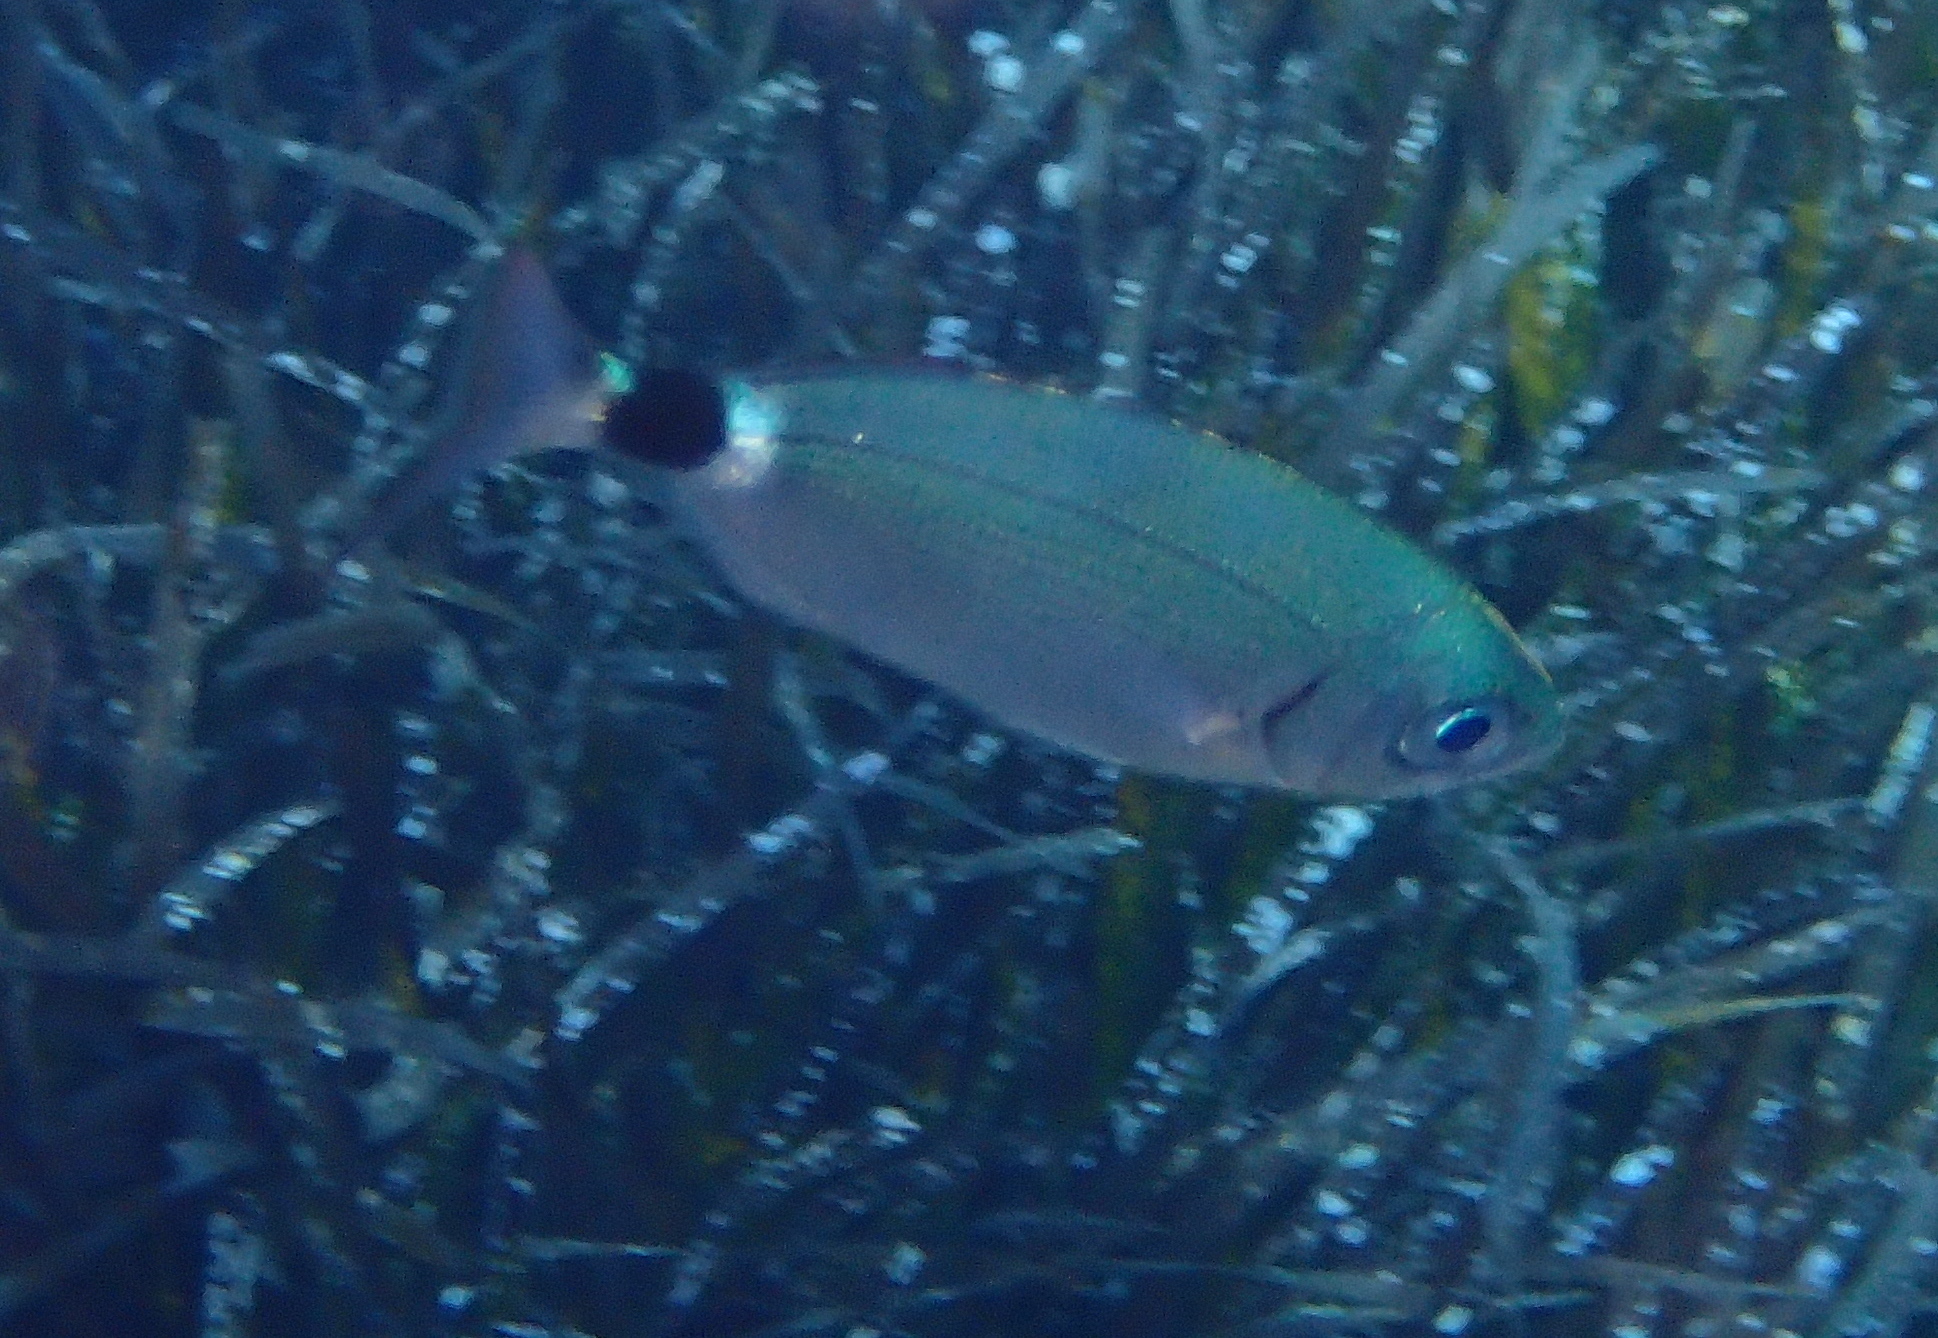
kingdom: Animalia
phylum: Chordata
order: Perciformes
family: Sparidae
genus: Oblada
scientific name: Oblada melanura
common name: Saddled seabream
